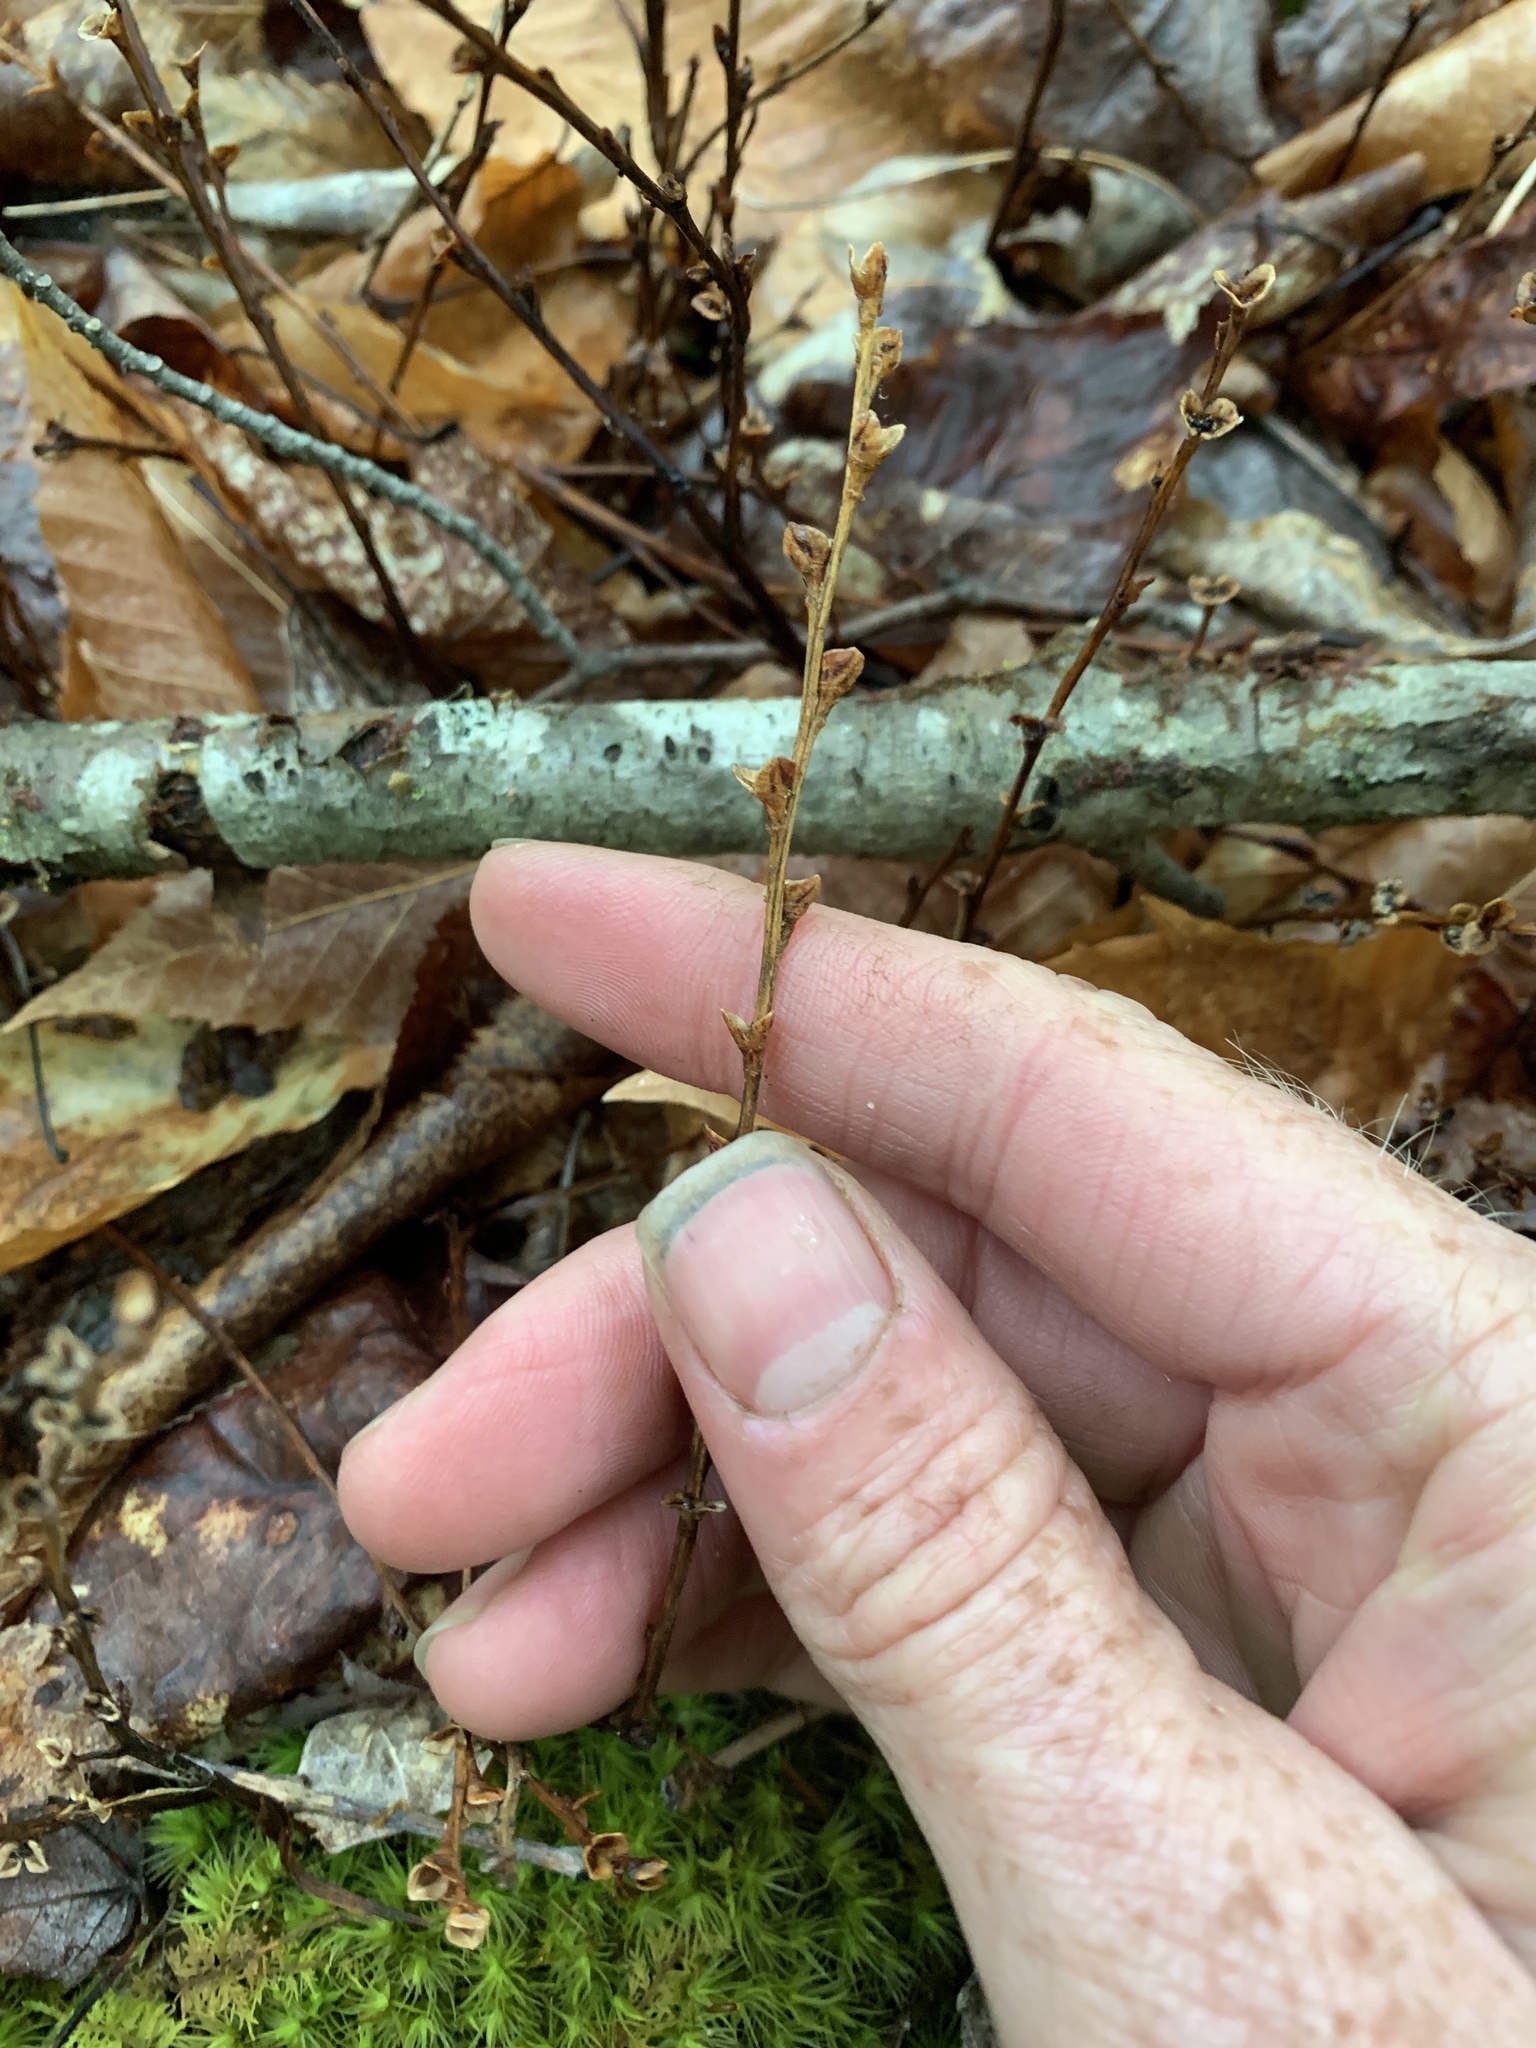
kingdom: Plantae
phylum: Tracheophyta
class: Magnoliopsida
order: Lamiales
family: Orobanchaceae
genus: Epifagus
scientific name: Epifagus virginiana
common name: Beechdrops
